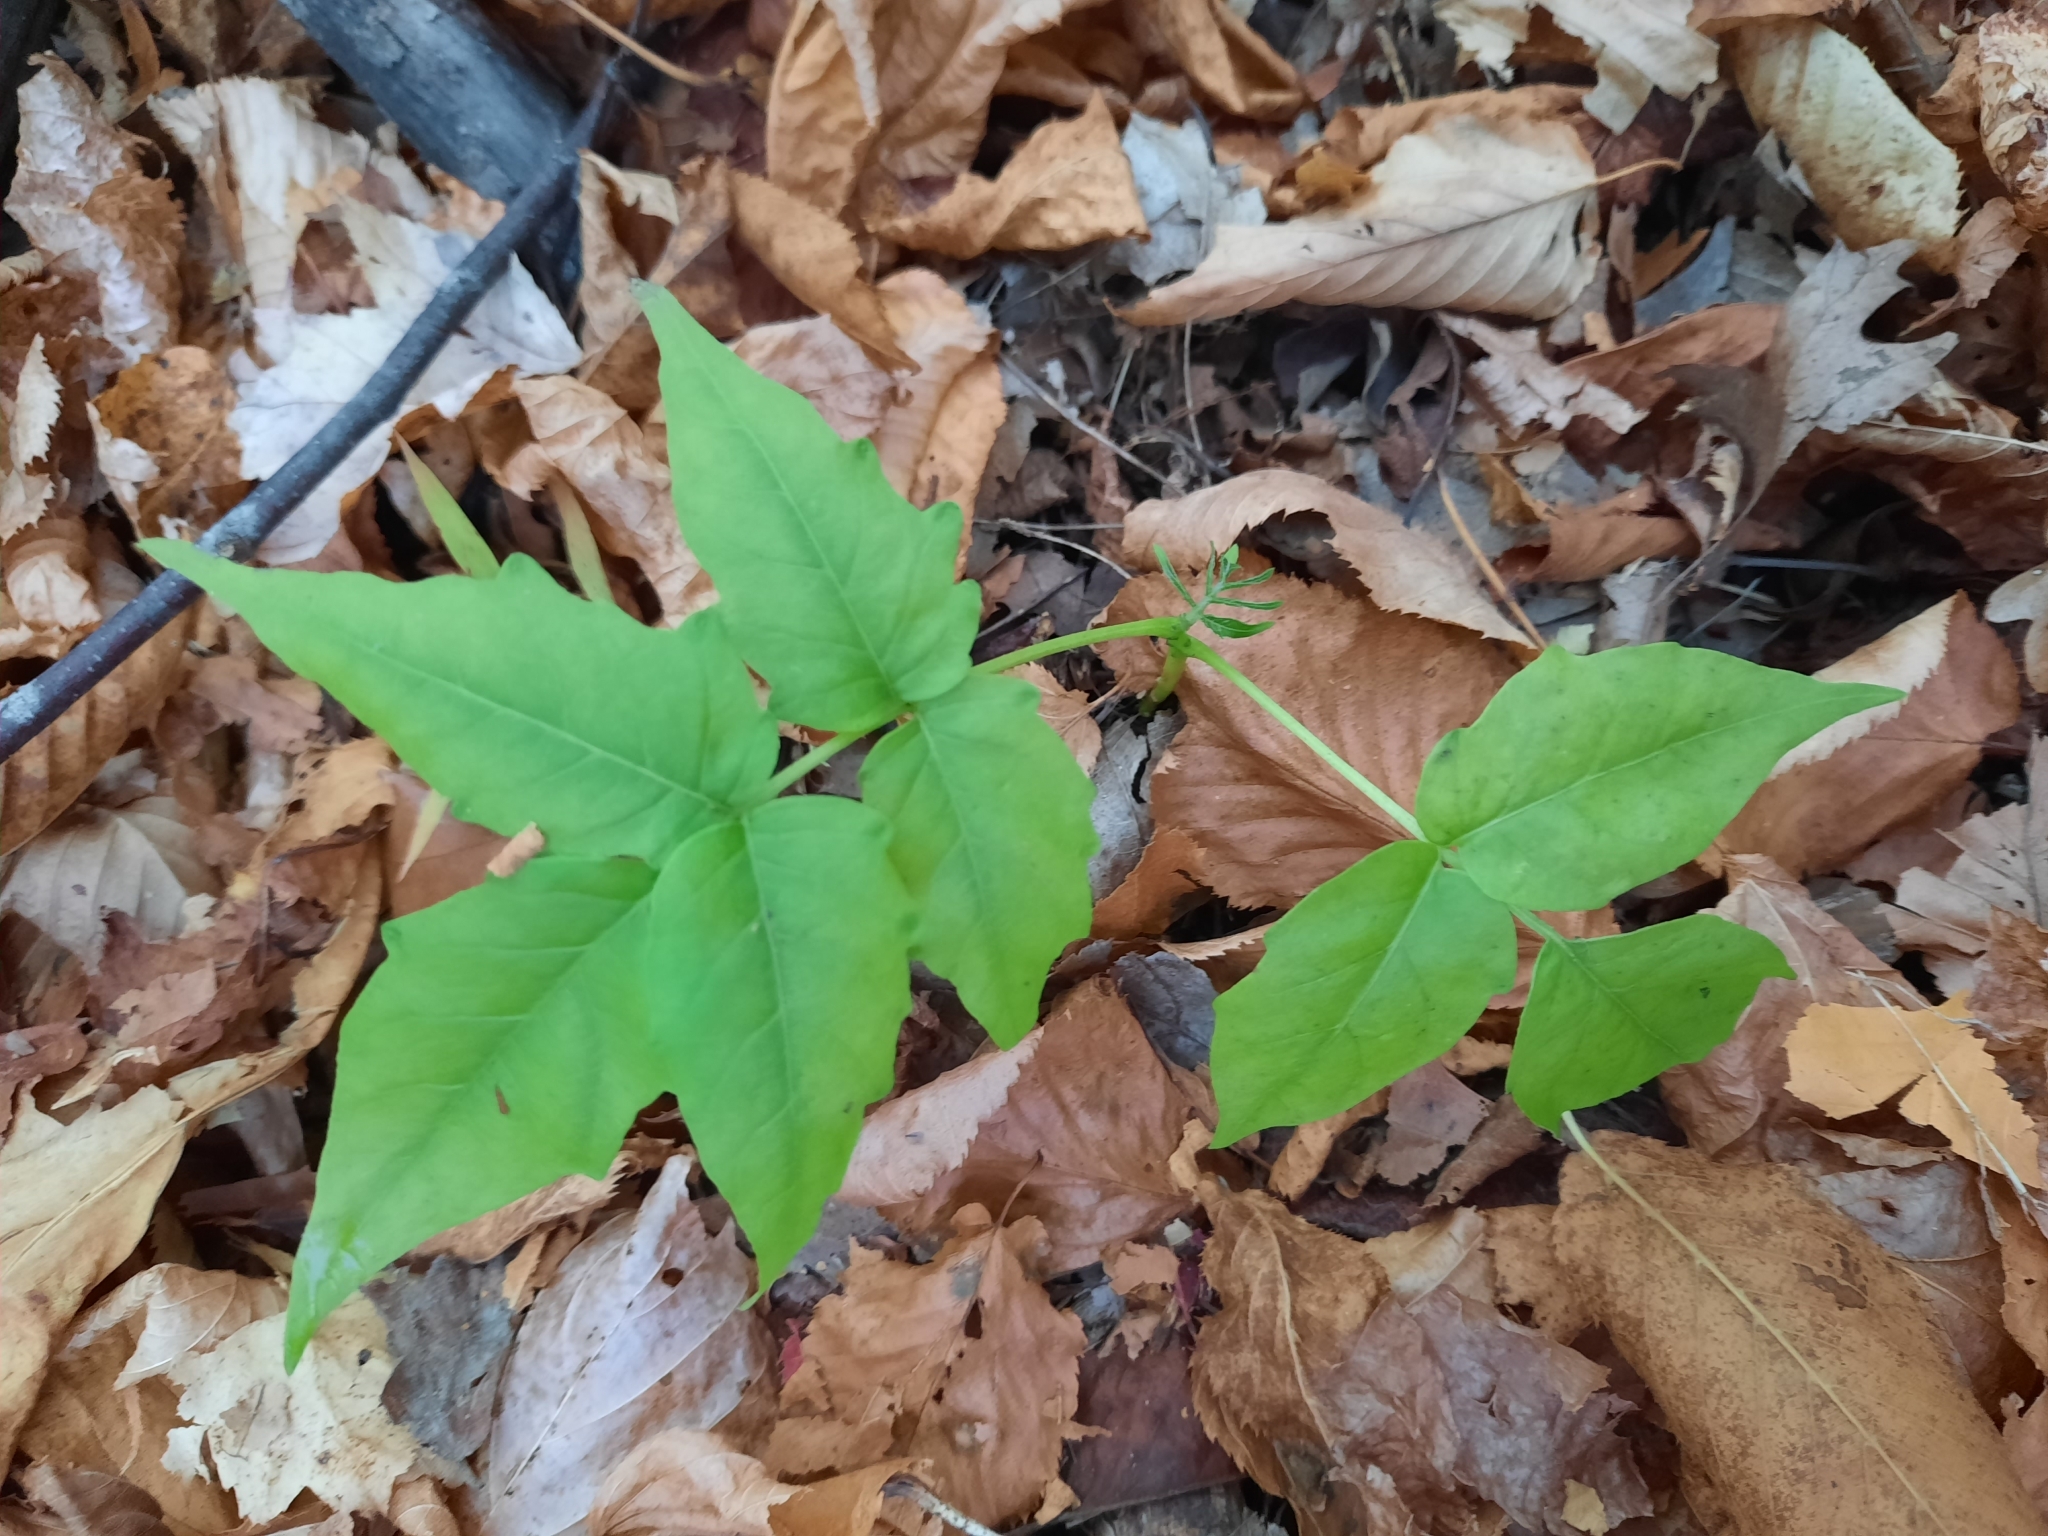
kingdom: Plantae
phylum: Tracheophyta
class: Magnoliopsida
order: Sapindales
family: Simaroubaceae
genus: Ailanthus
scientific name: Ailanthus altissima
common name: Tree-of-heaven
